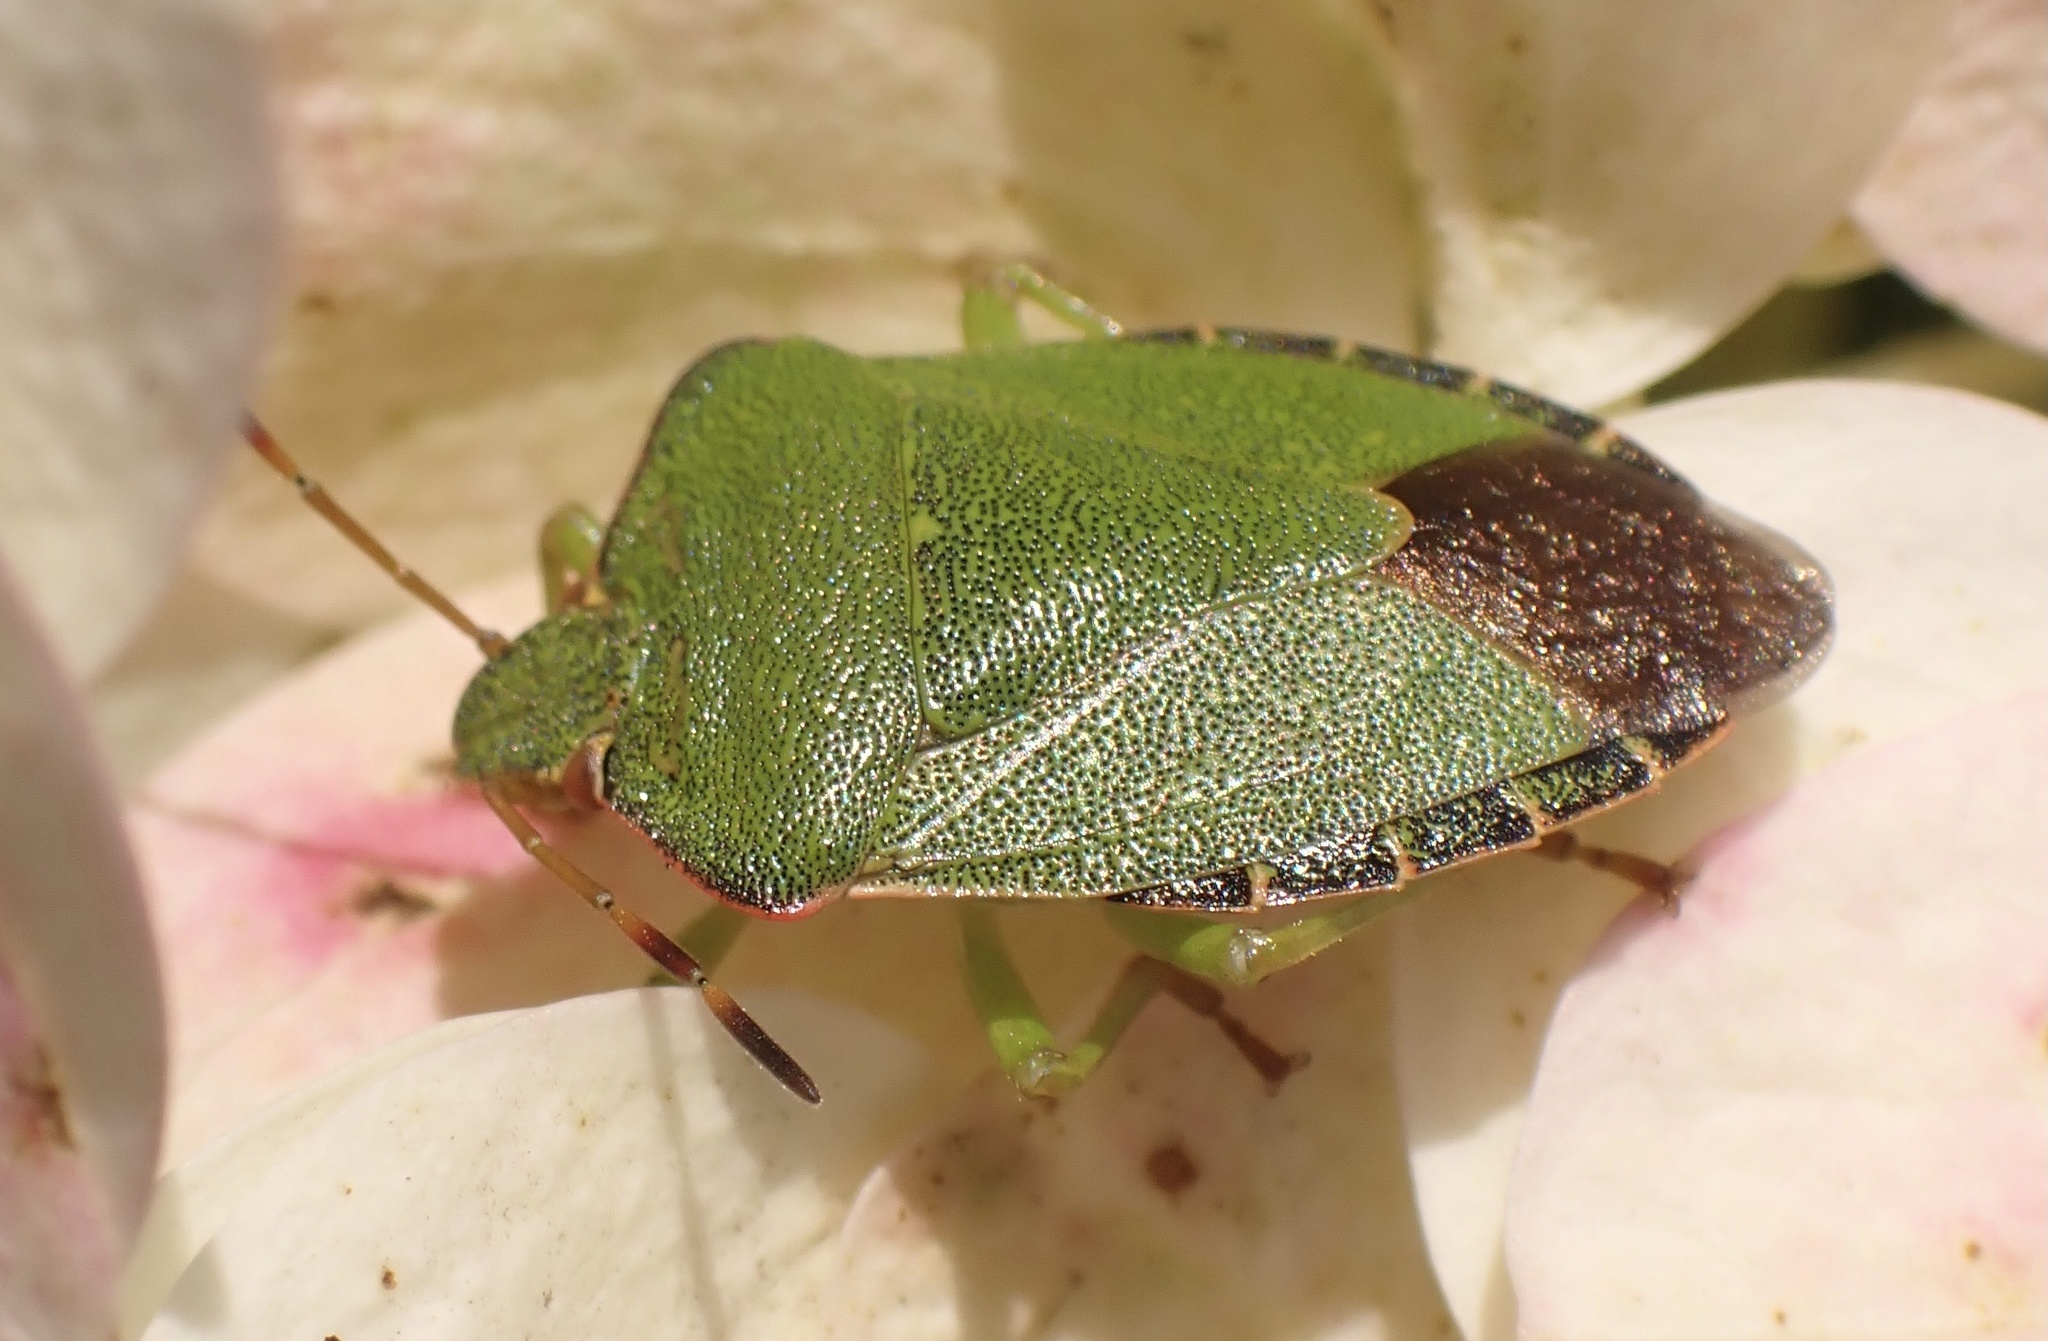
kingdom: Animalia
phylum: Arthropoda
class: Insecta
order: Hemiptera
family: Pentatomidae
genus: Palomena
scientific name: Palomena prasina
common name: Green shieldbug
